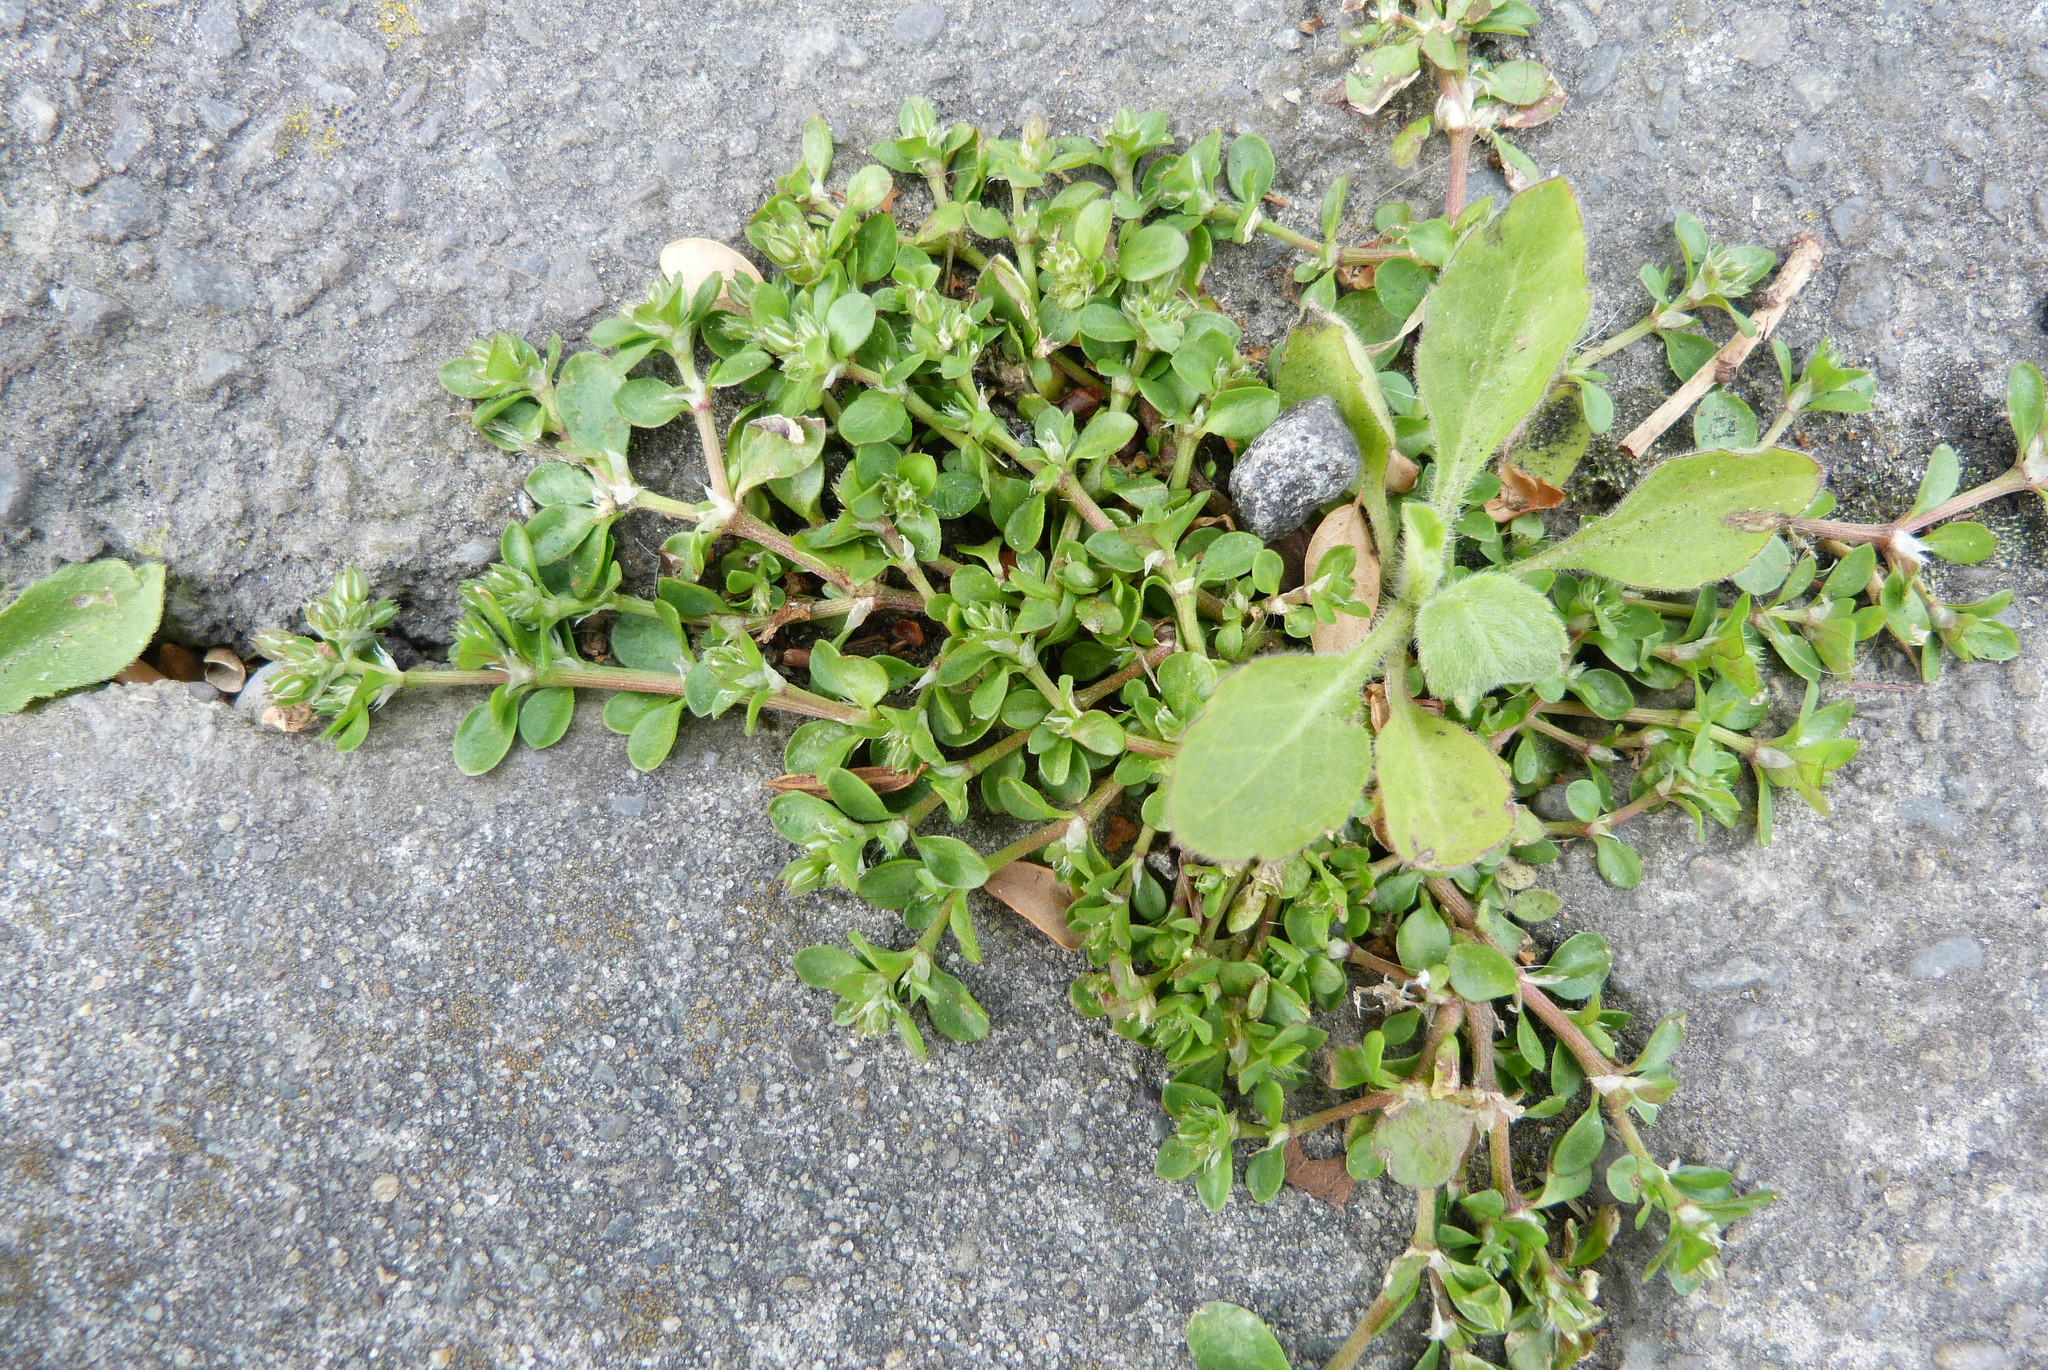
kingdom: Plantae
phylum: Tracheophyta
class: Magnoliopsida
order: Caryophyllales
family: Caryophyllaceae
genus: Polycarpon
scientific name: Polycarpon tetraphyllum
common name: Four-leaved all-seed
